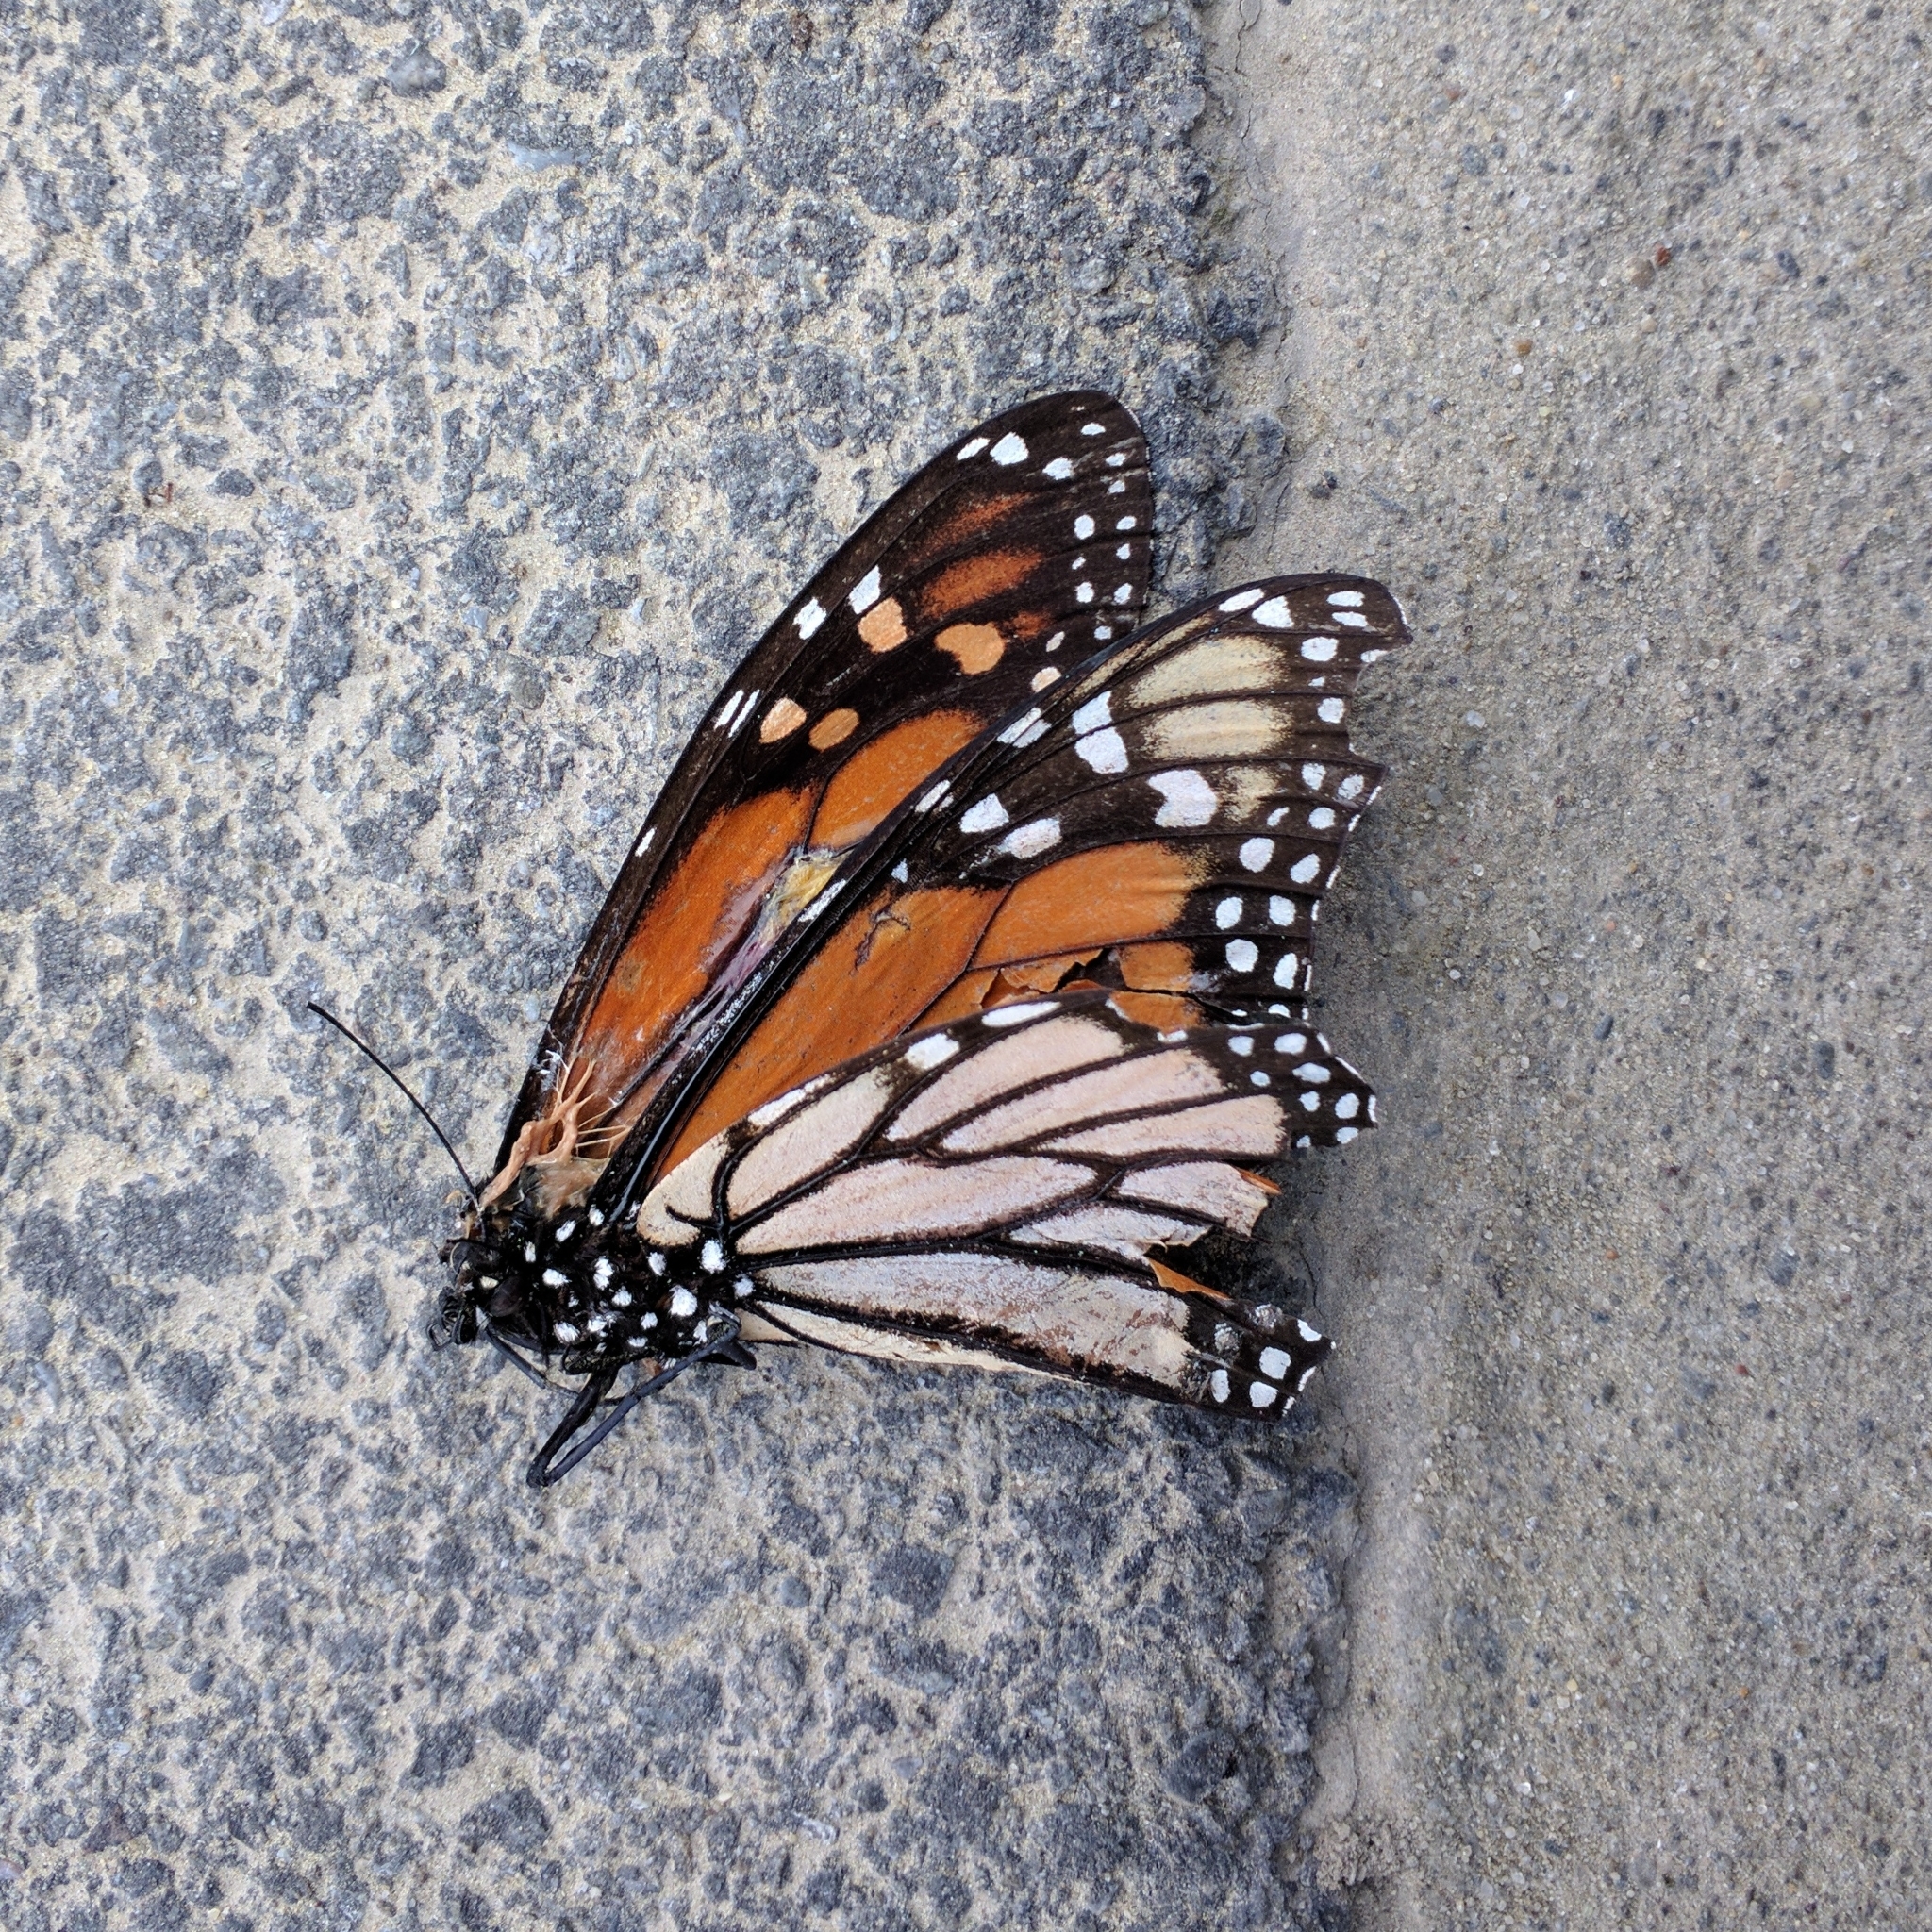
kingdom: Animalia
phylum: Arthropoda
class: Insecta
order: Lepidoptera
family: Nymphalidae
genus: Danaus
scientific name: Danaus plexippus
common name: Monarch
